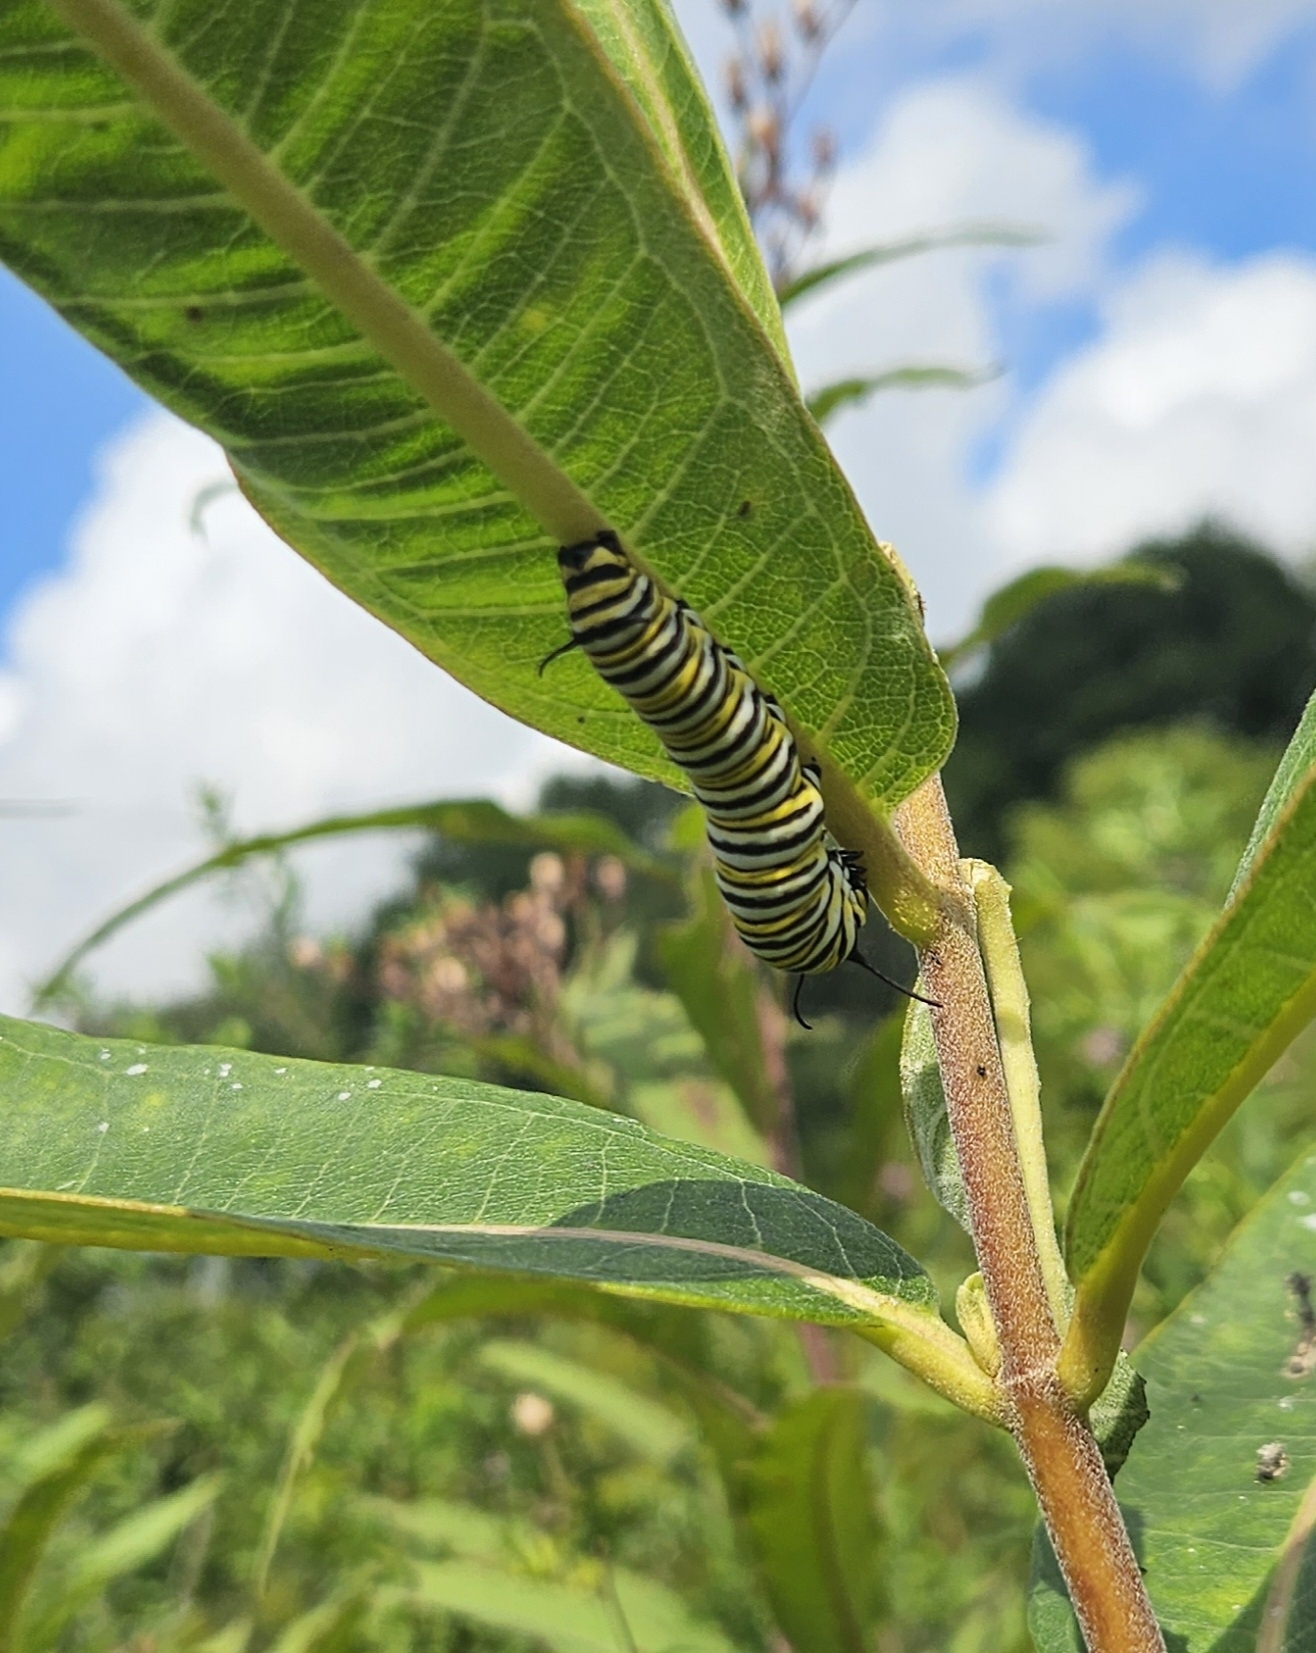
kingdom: Animalia
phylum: Arthropoda
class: Insecta
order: Lepidoptera
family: Nymphalidae
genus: Danaus
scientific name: Danaus plexippus
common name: Monarch
